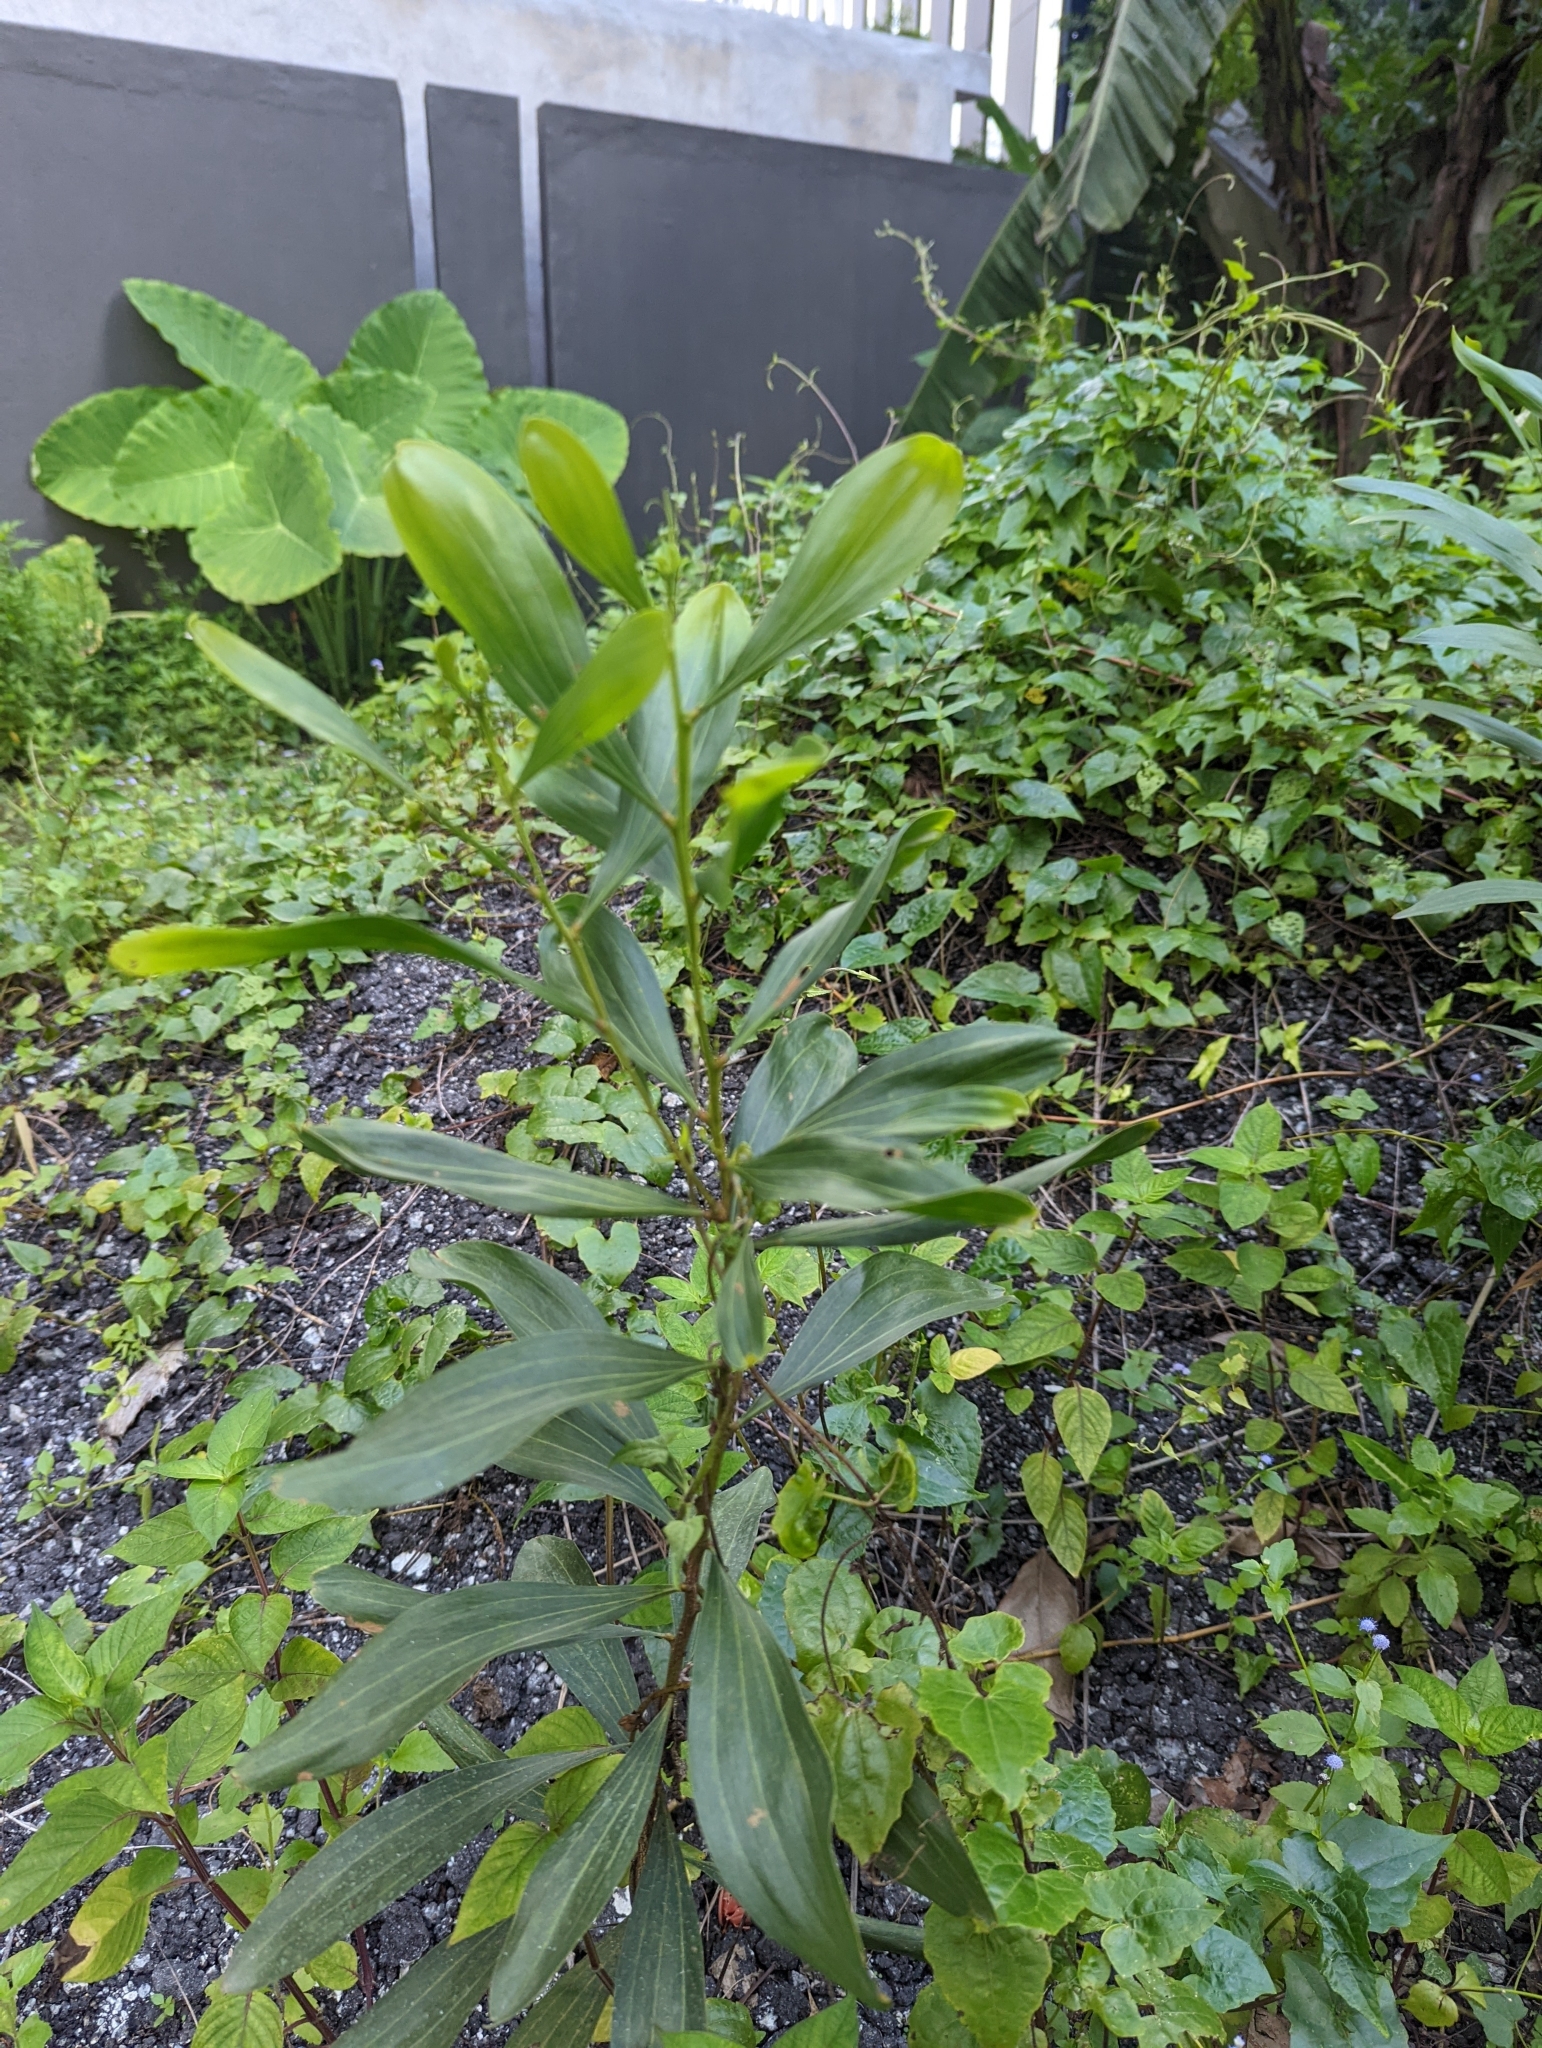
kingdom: Plantae
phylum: Tracheophyta
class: Magnoliopsida
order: Fabales
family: Fabaceae
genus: Acacia
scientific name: Acacia mangium
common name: Black wattle
